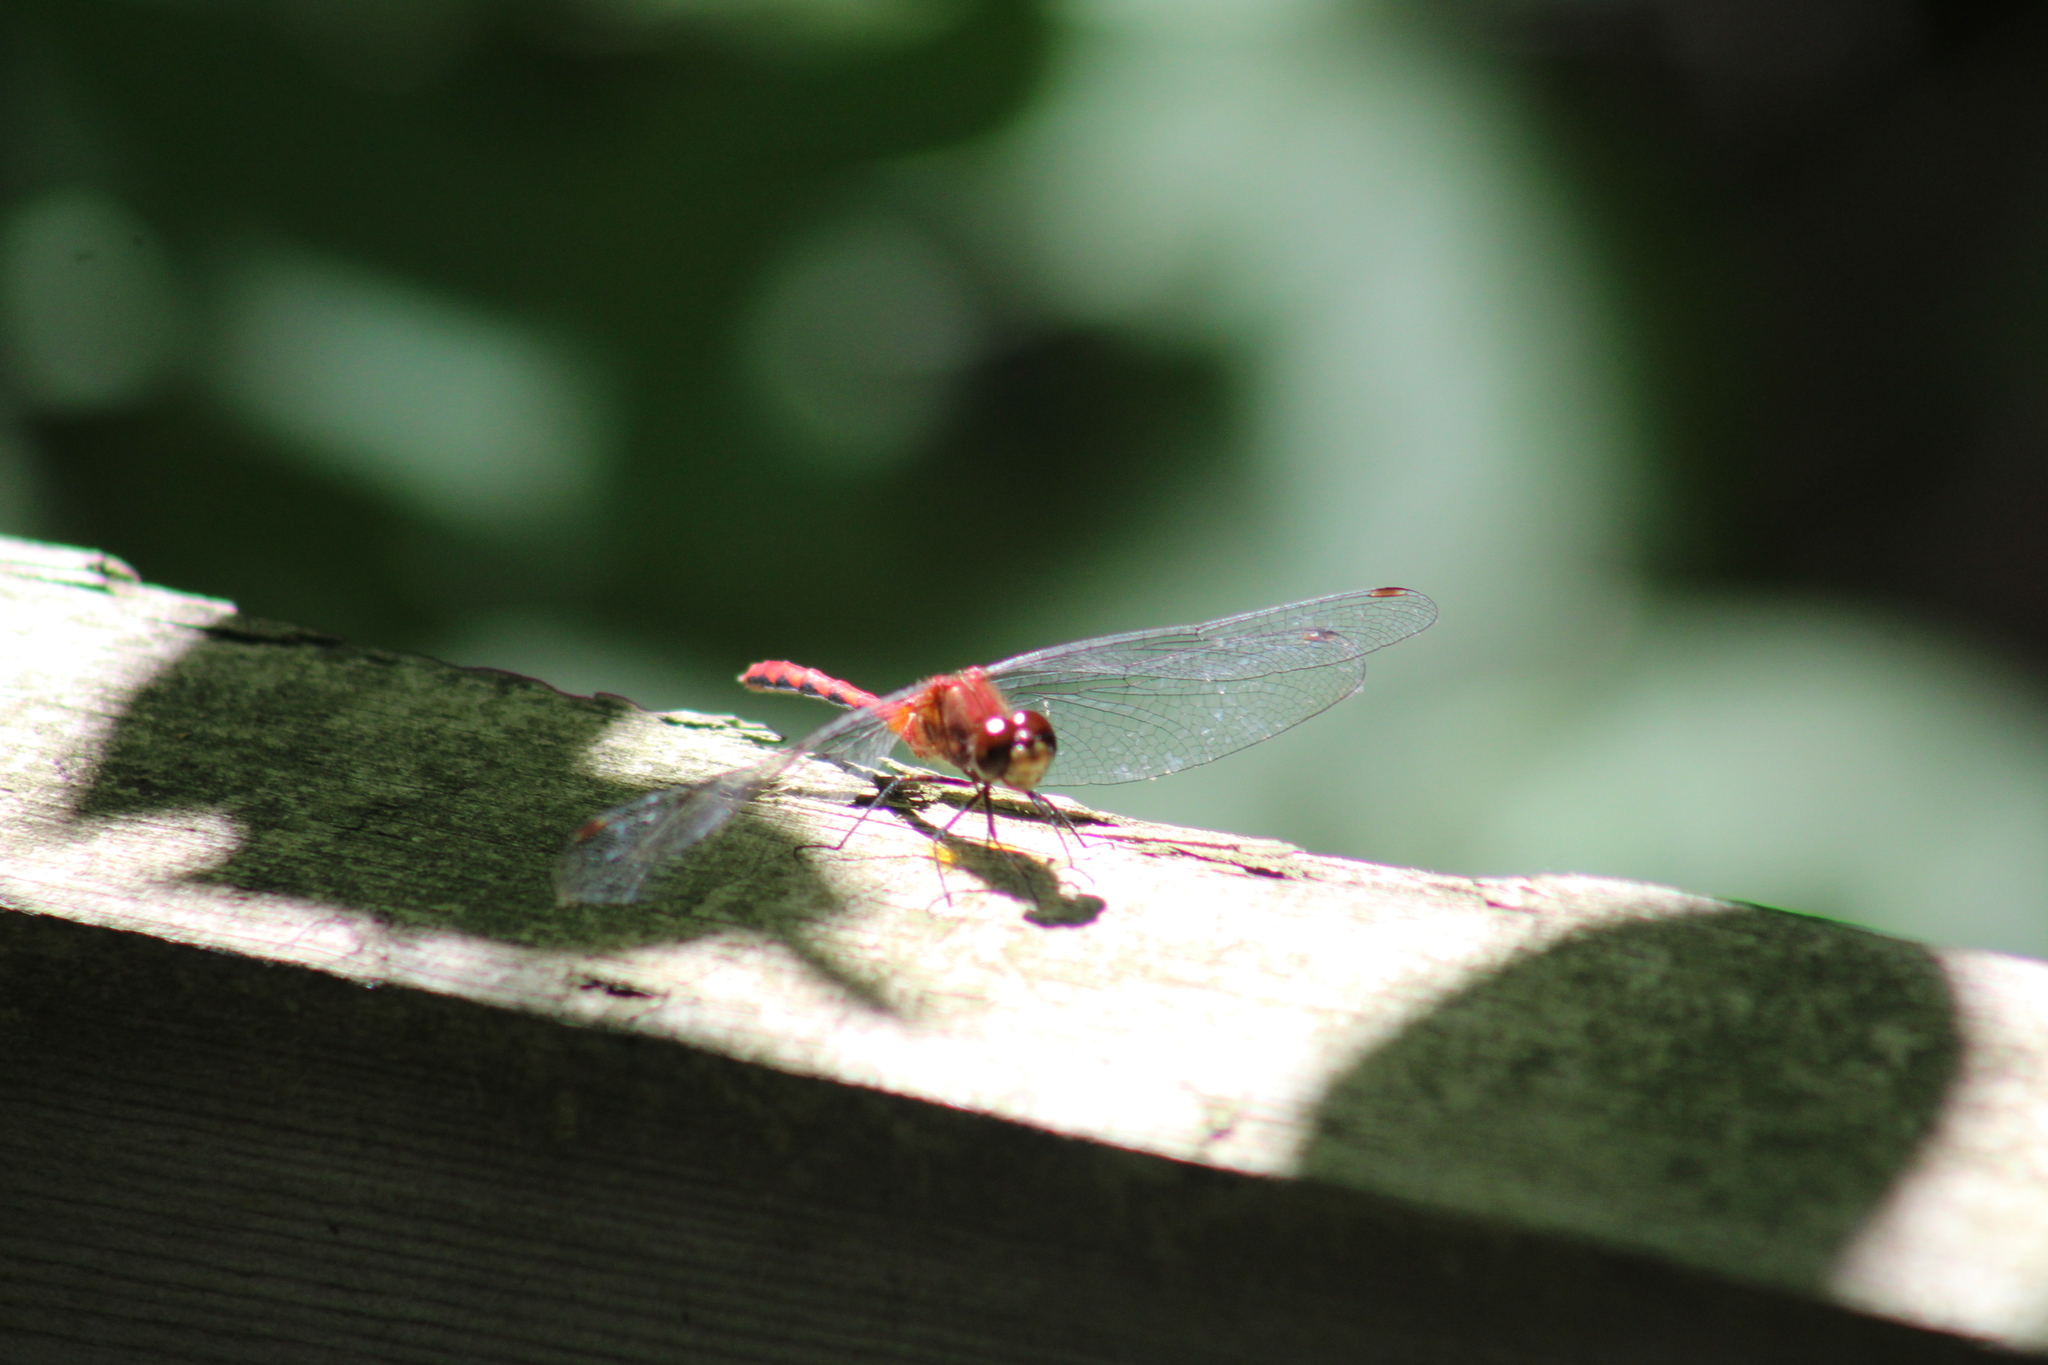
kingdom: Animalia
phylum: Arthropoda
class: Insecta
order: Odonata
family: Libellulidae
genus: Sympetrum
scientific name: Sympetrum rubicundulum
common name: Ruby meadowhawk
